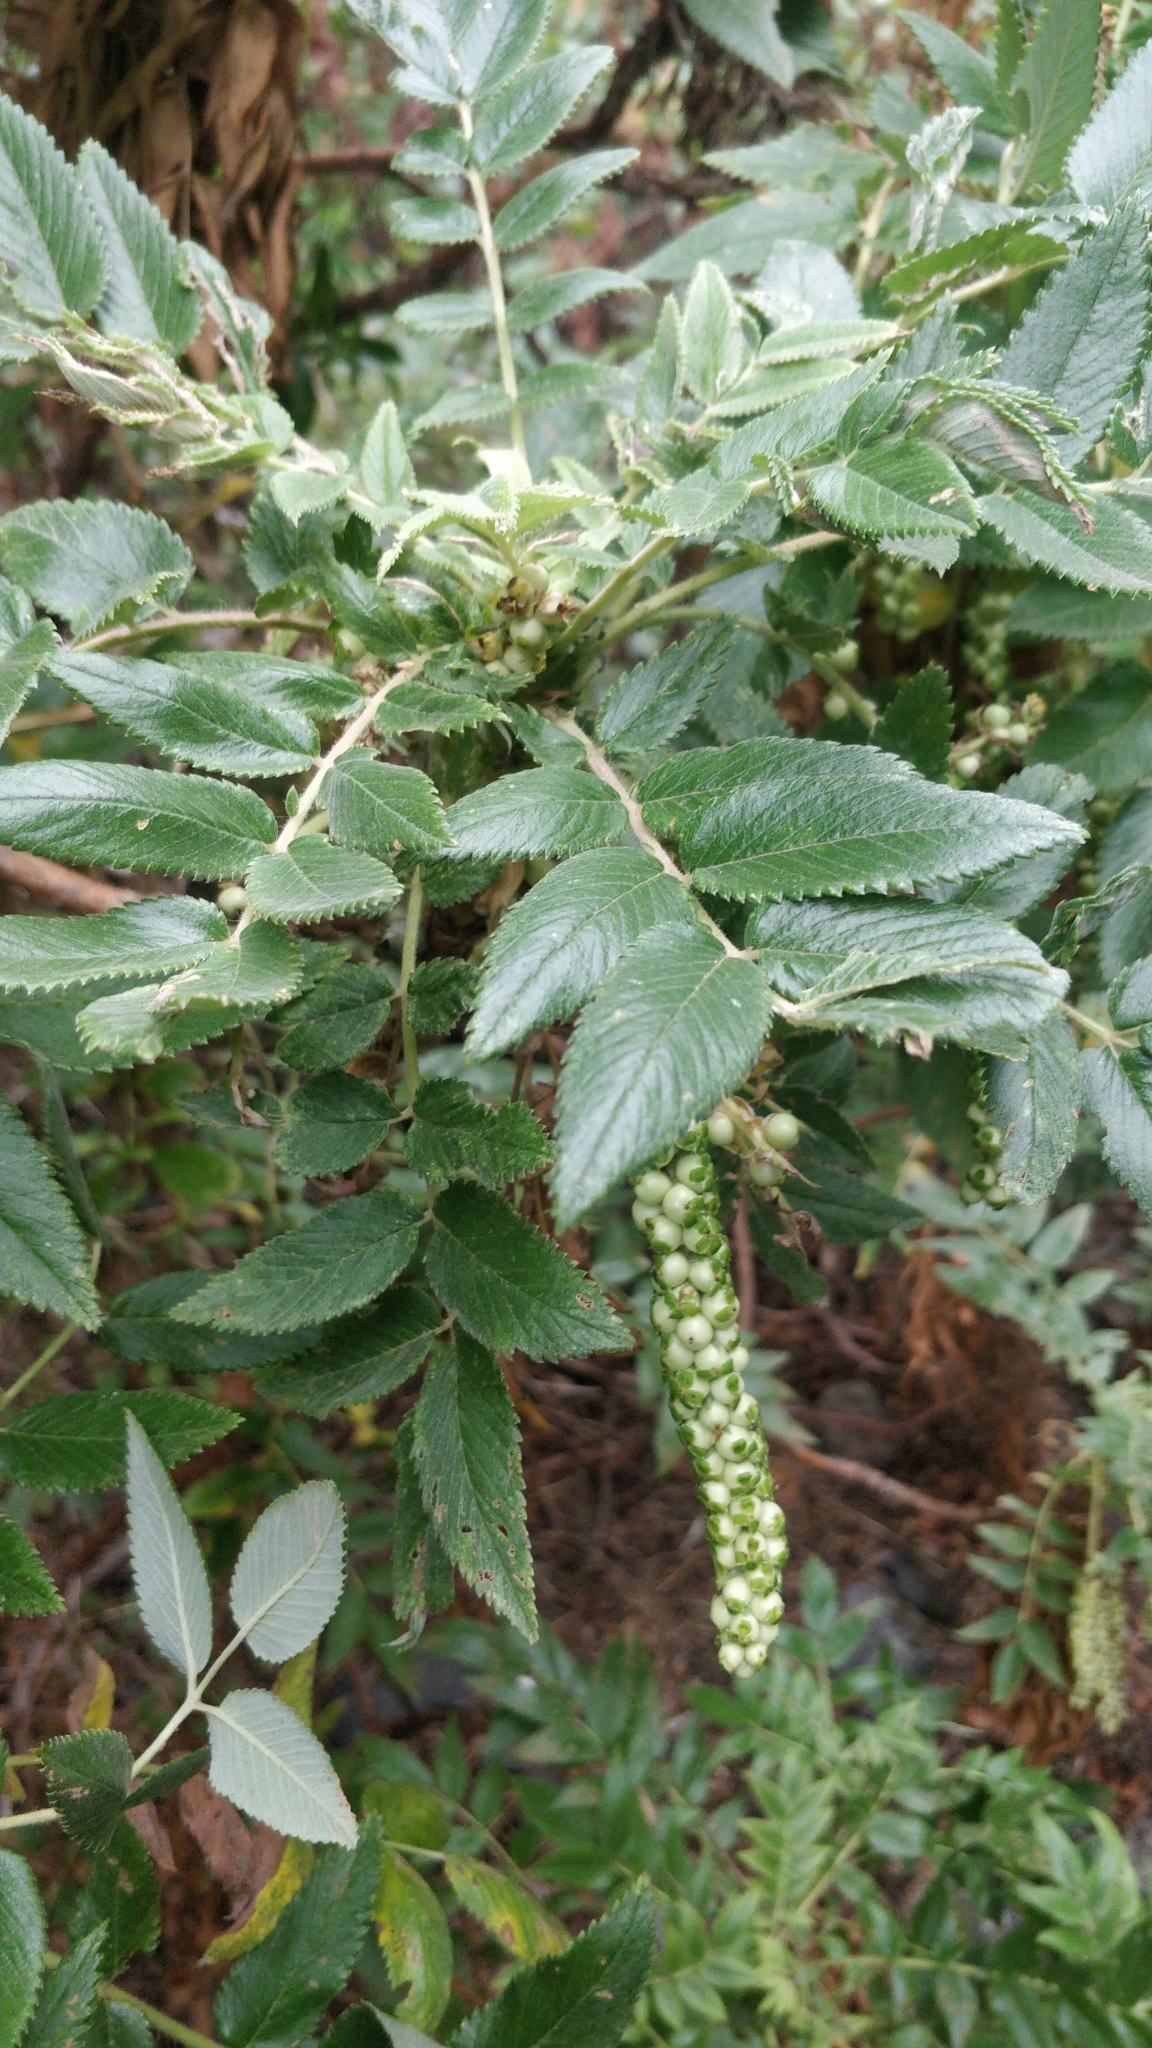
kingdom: Plantae
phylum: Tracheophyta
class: Magnoliopsida
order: Rosales
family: Rosaceae
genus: Bencomia
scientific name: Bencomia caudata
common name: Bencomia
